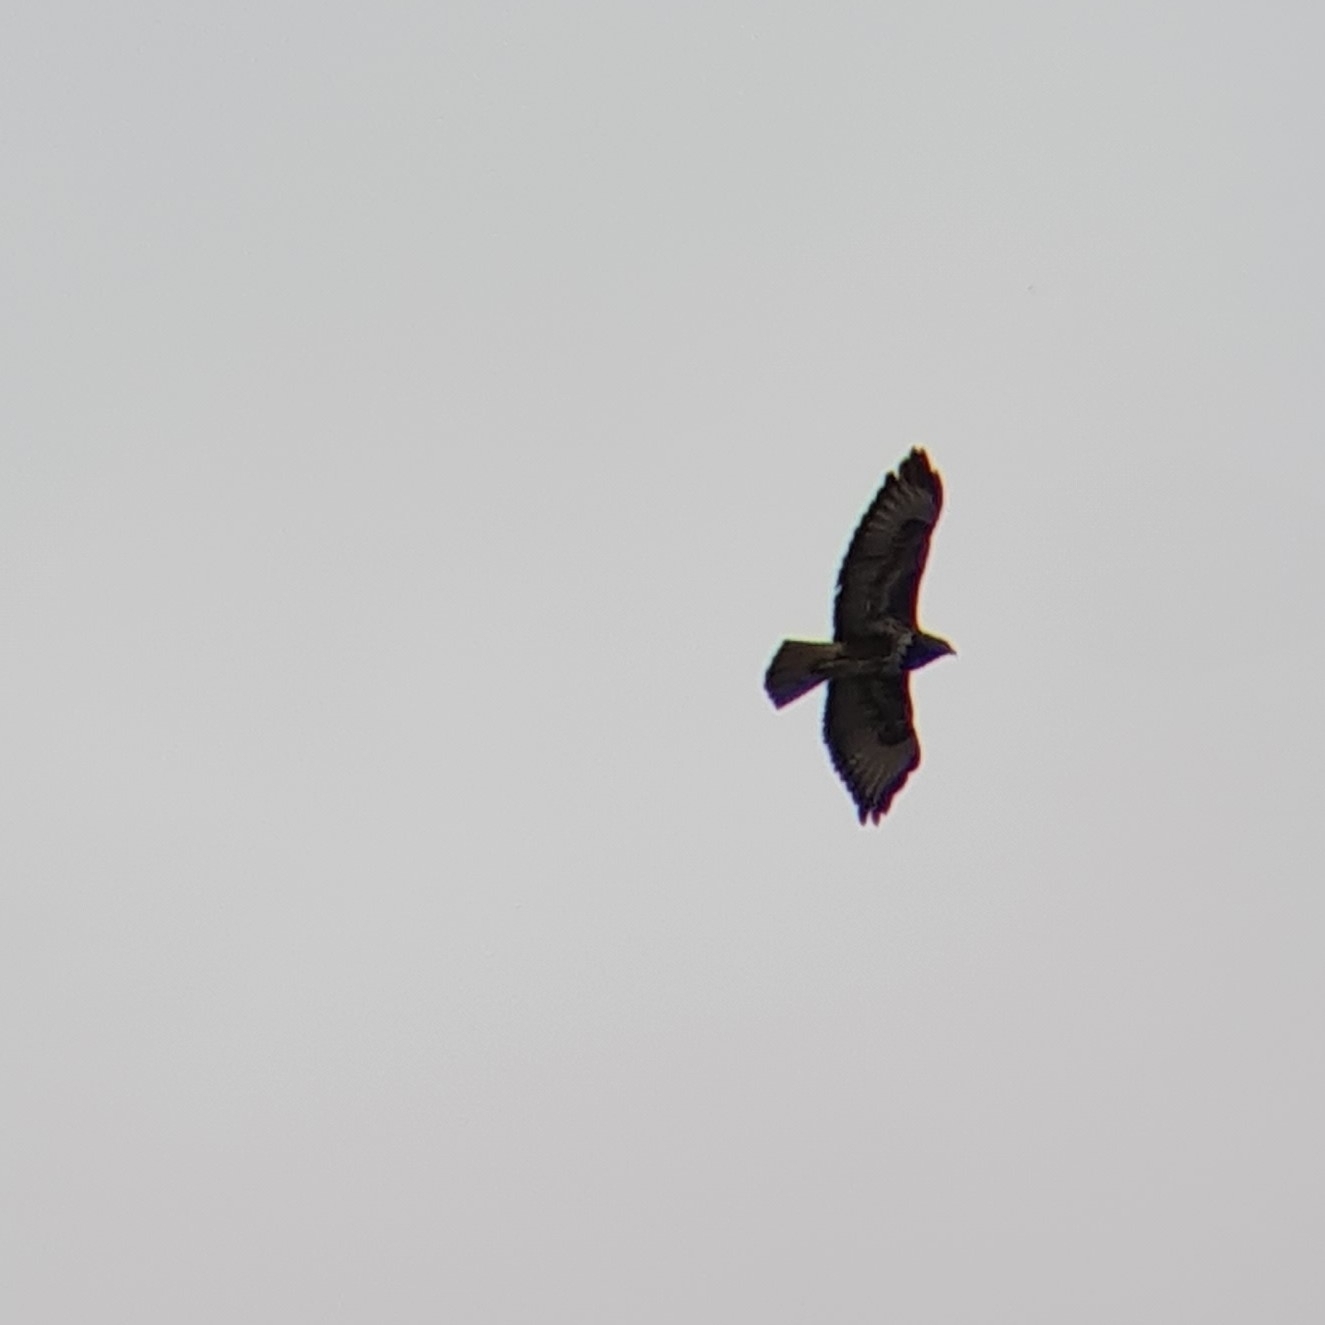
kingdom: Animalia
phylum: Chordata
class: Aves
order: Accipitriformes
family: Accipitridae
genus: Buteo
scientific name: Buteo buteo
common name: Common buzzard
